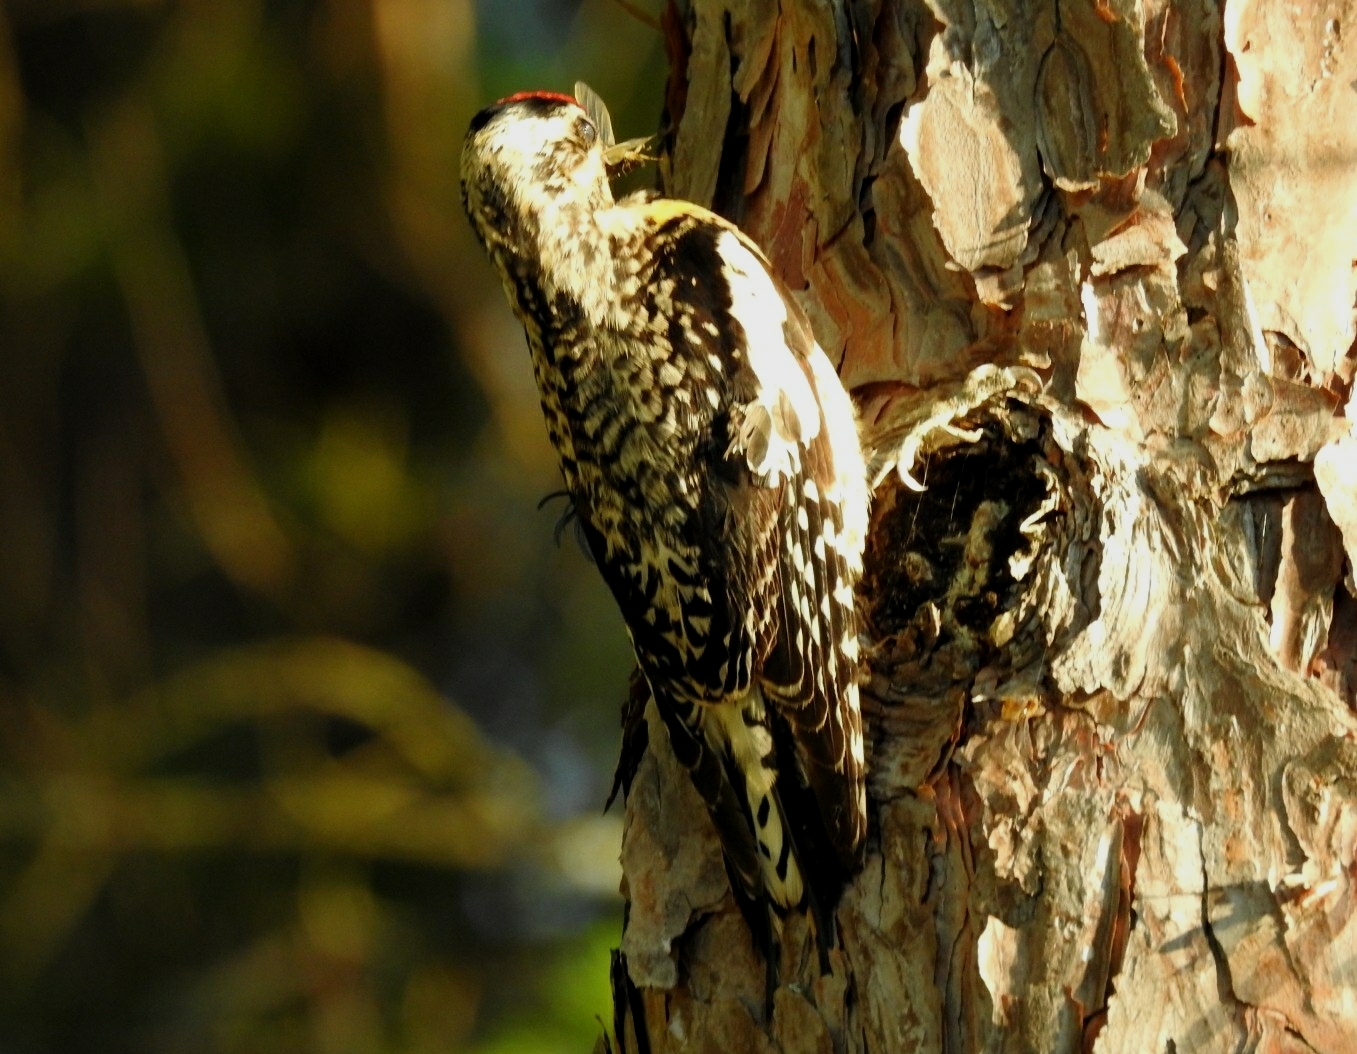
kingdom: Animalia
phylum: Chordata
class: Aves
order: Piciformes
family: Picidae
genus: Sphyrapicus
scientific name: Sphyrapicus varius
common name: Yellow-bellied sapsucker
